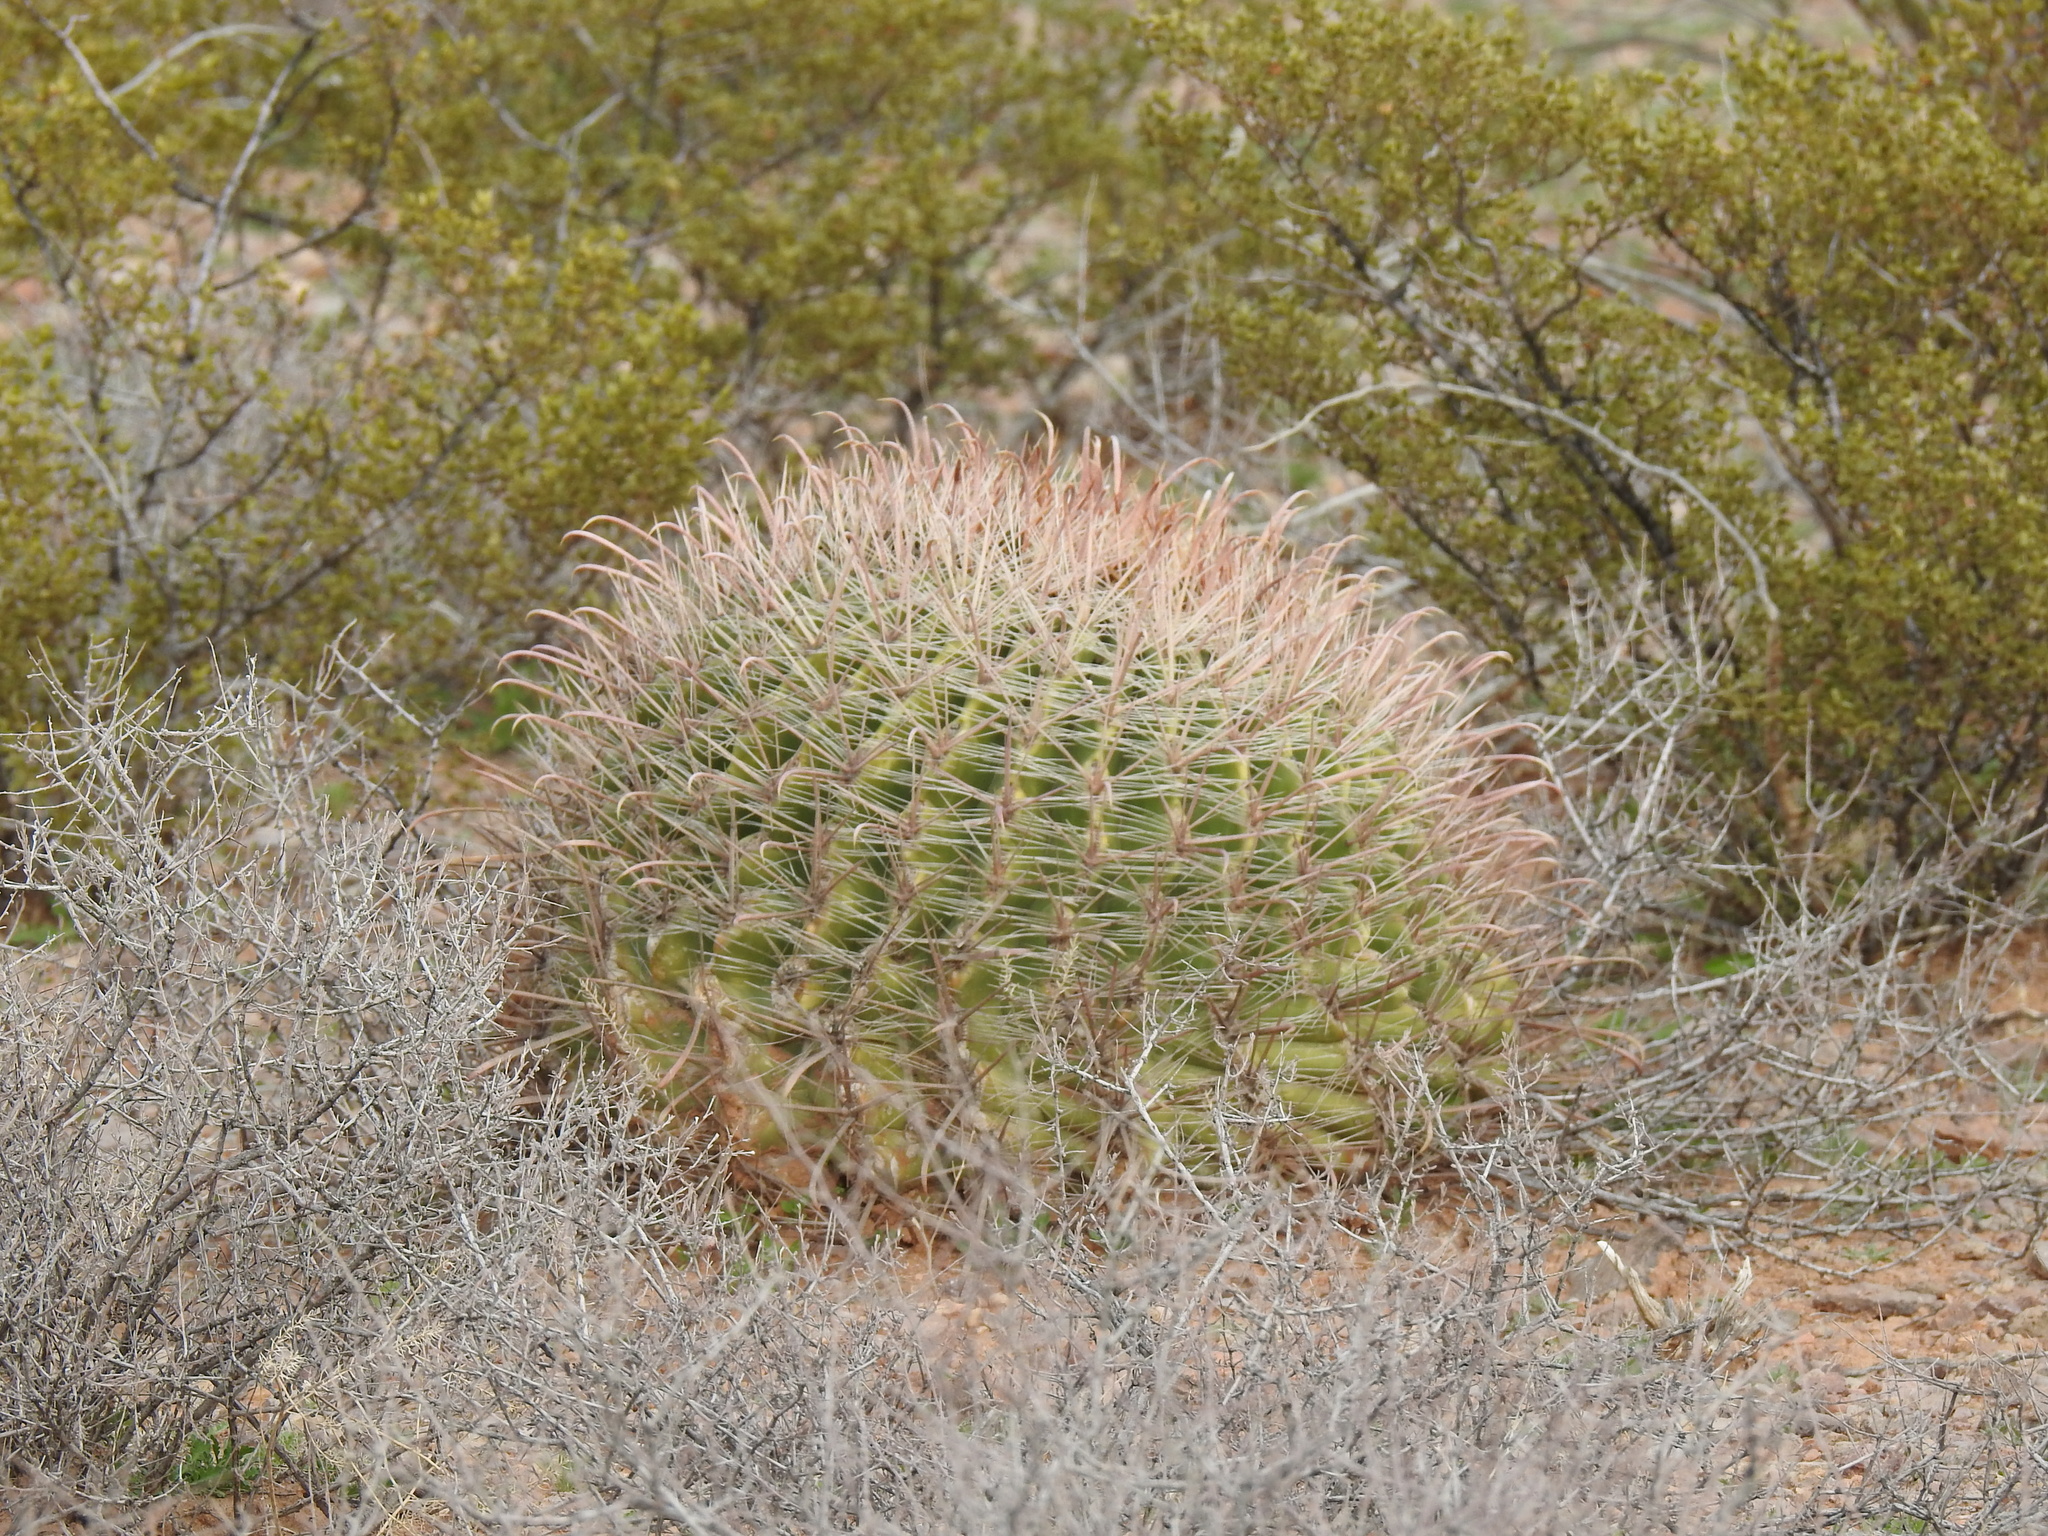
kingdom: Plantae
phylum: Tracheophyta
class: Magnoliopsida
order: Caryophyllales
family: Cactaceae
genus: Ferocactus
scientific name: Ferocactus wislizeni
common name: Candy barrel cactus
